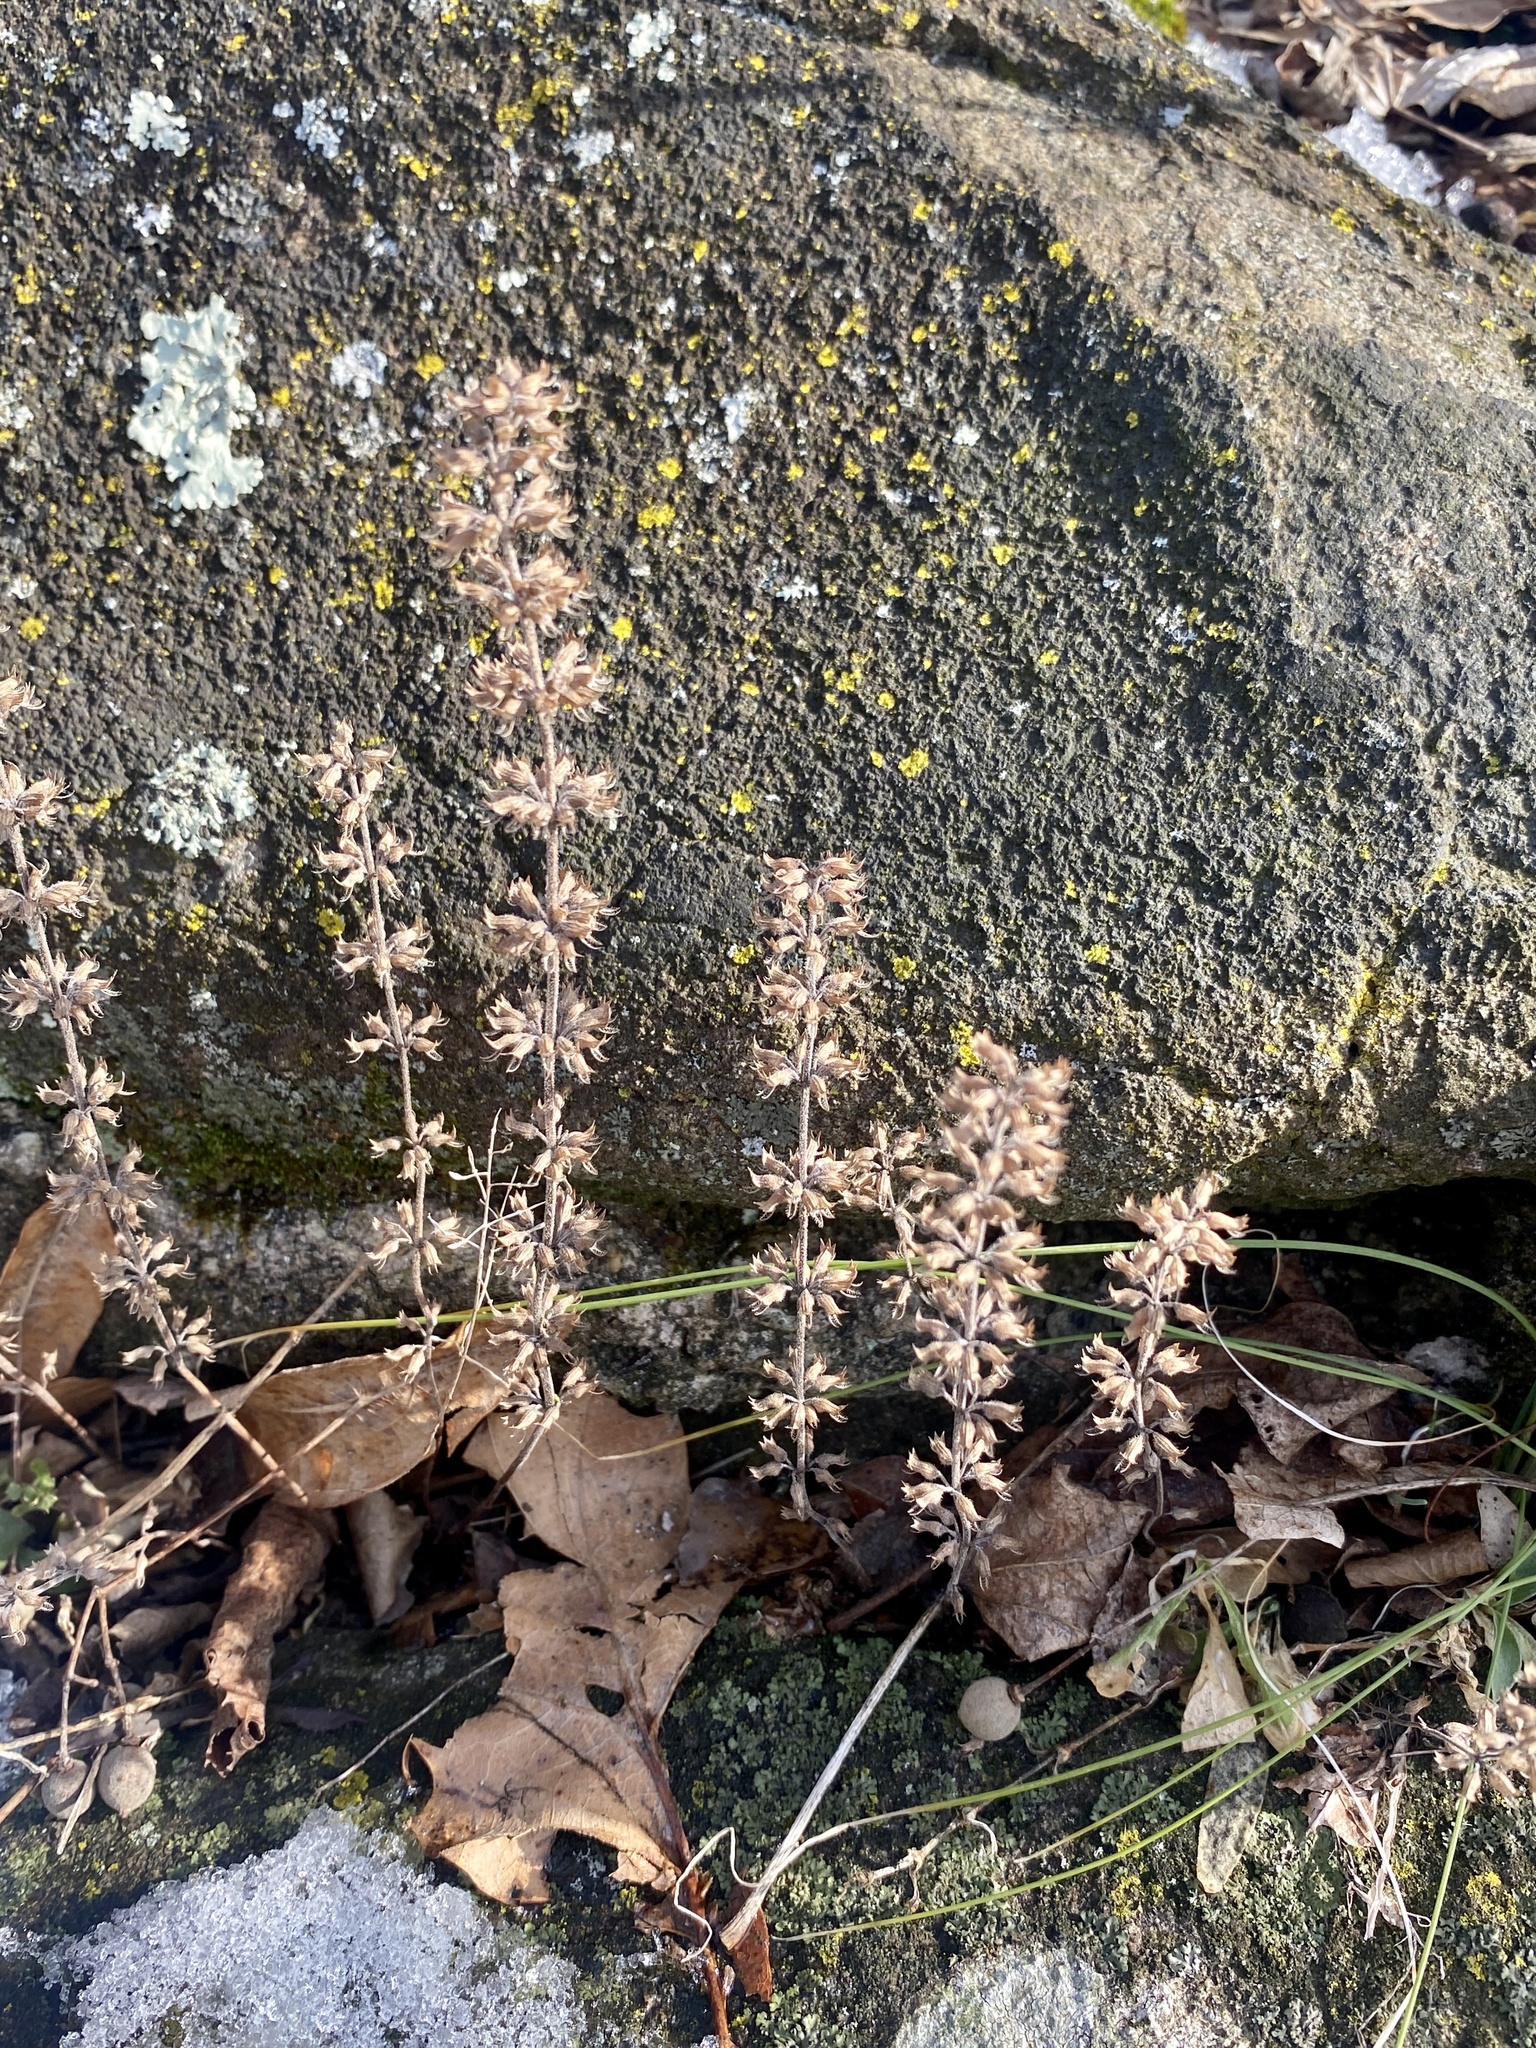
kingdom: Plantae
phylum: Tracheophyta
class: Magnoliopsida
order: Lamiales
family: Lamiaceae
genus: Hedeoma
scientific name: Hedeoma pulegioides
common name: American false pennyroyal
